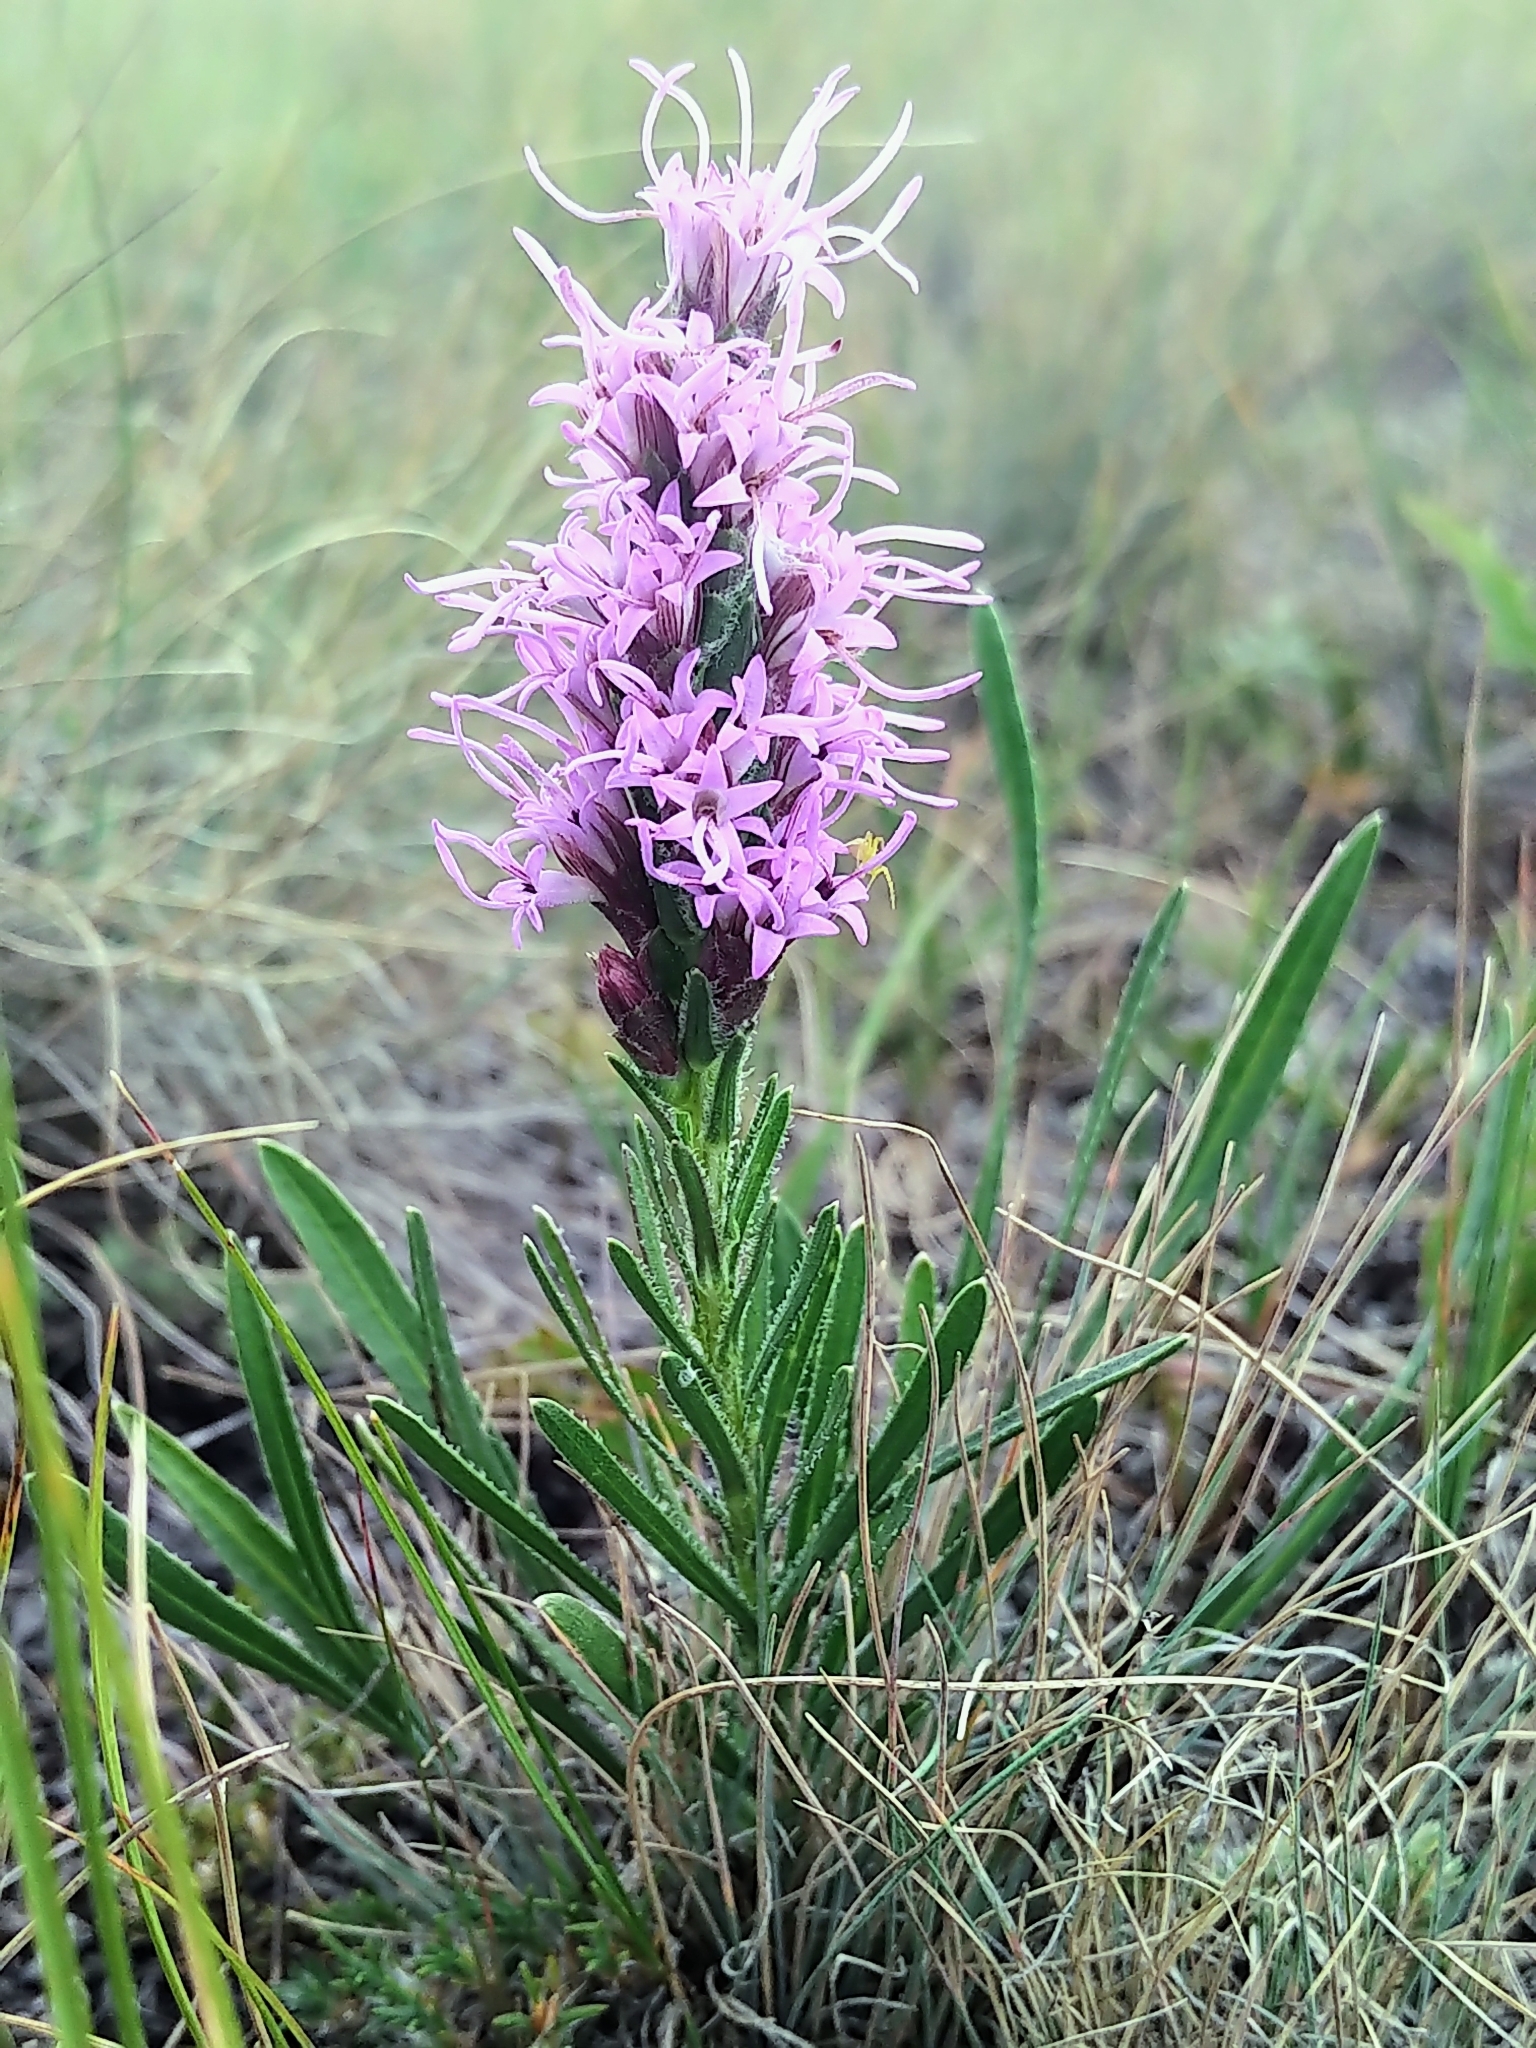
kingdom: Plantae
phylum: Tracheophyta
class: Magnoliopsida
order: Asterales
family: Asteraceae
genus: Liatris
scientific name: Liatris punctata
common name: Dotted gayfeather
